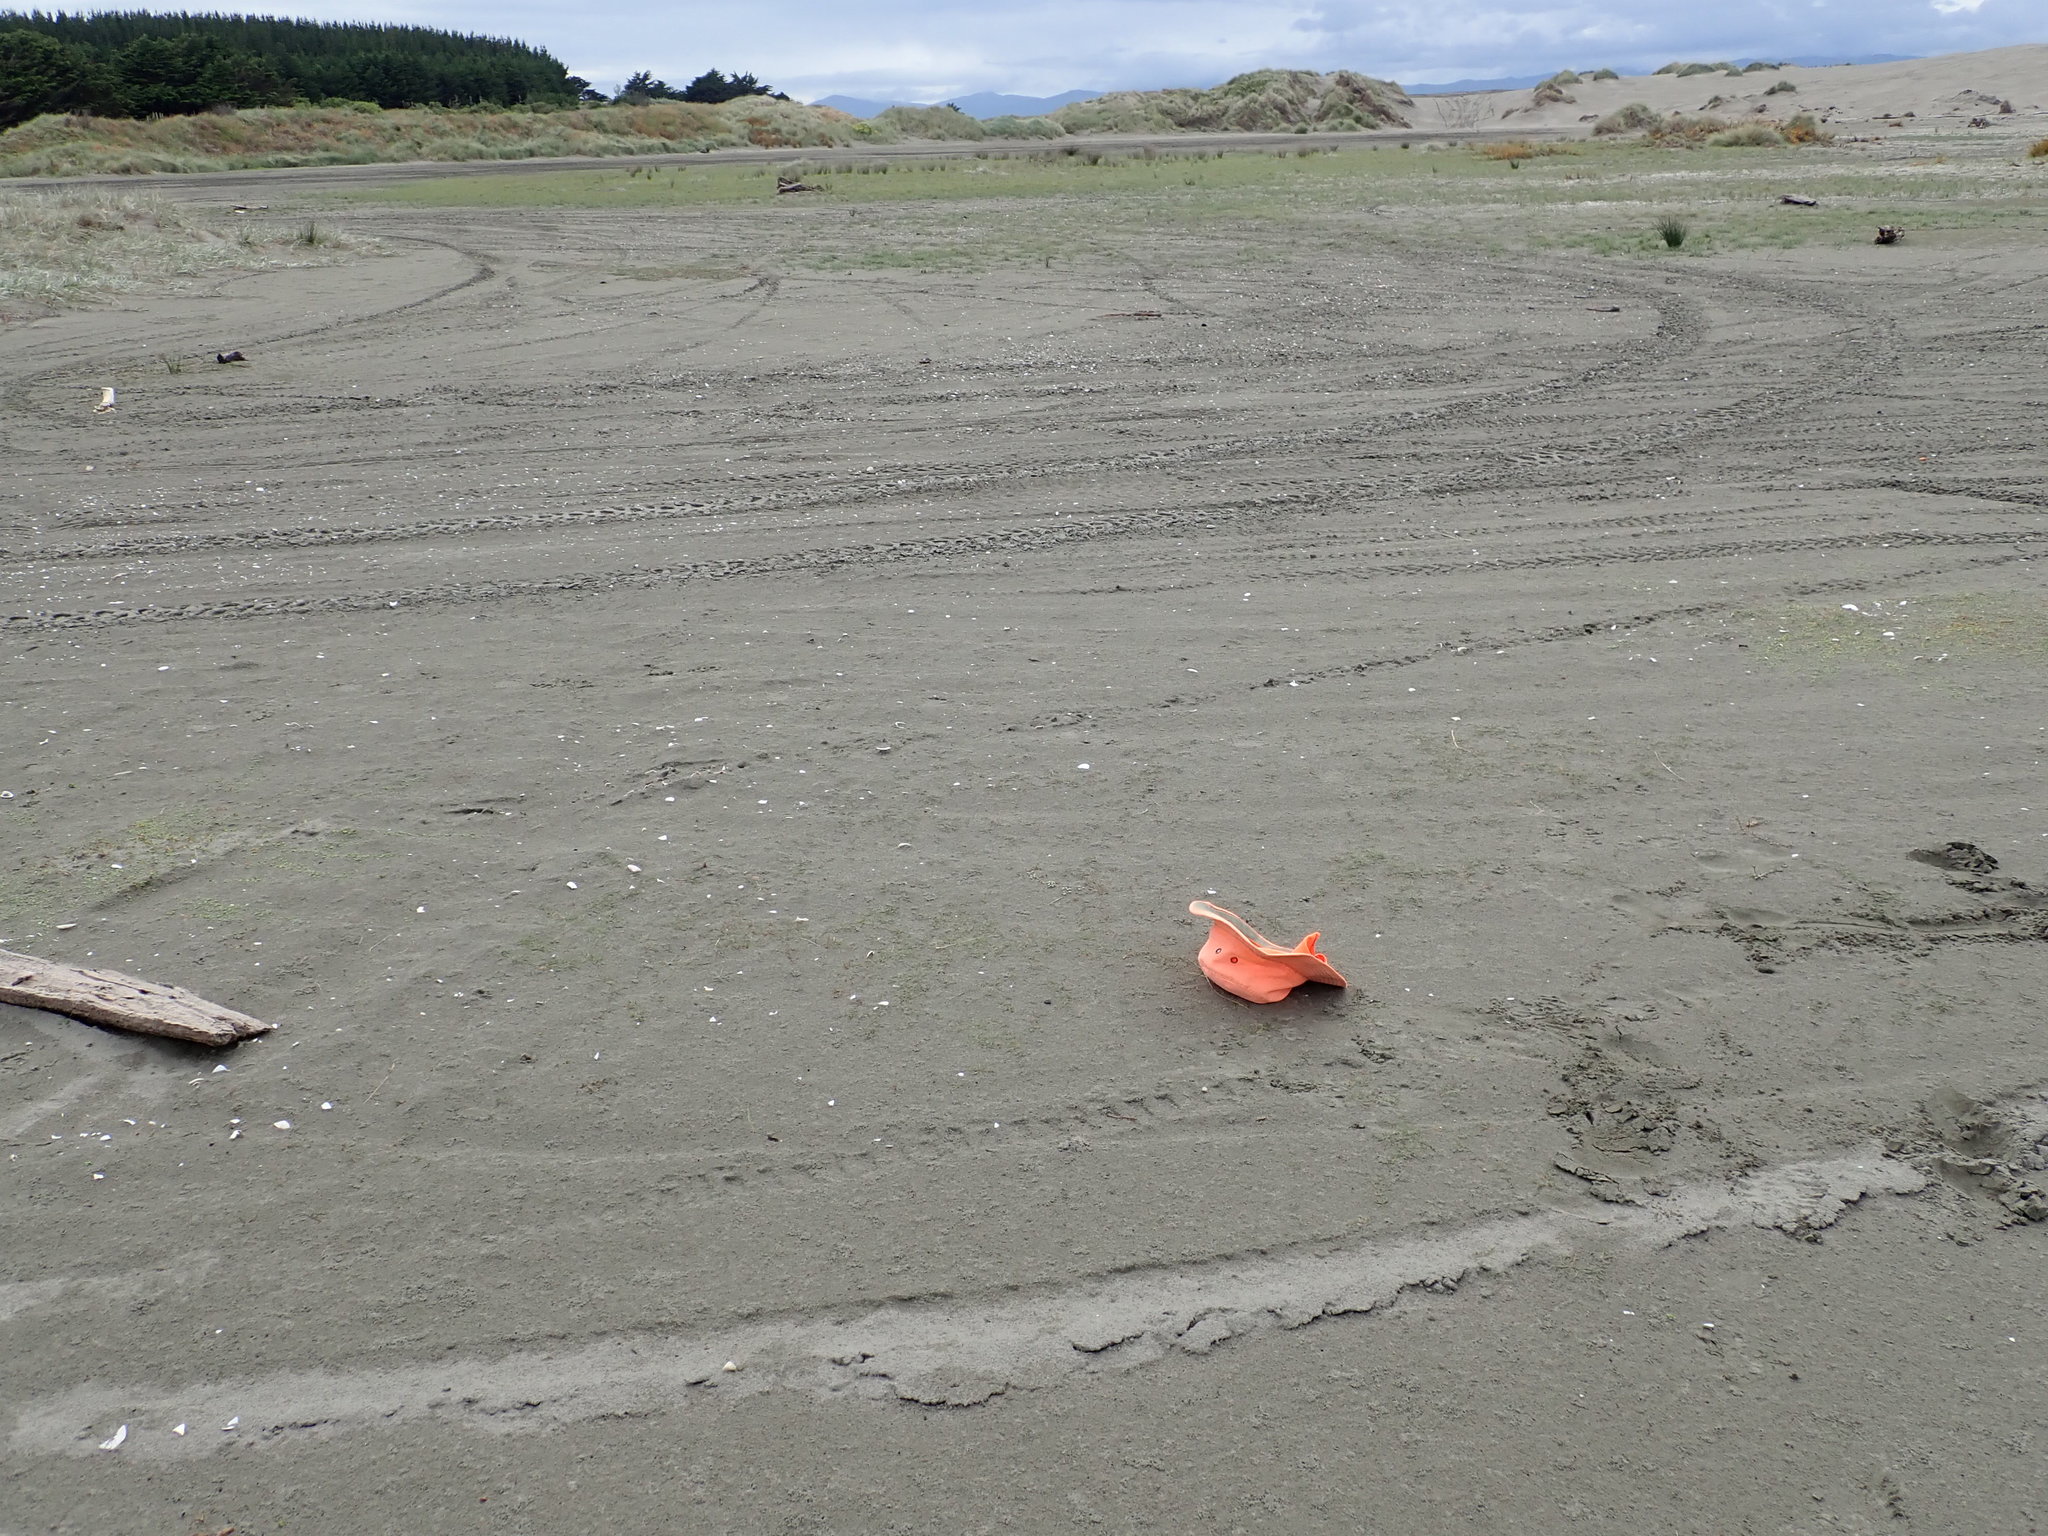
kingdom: Plantae
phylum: Tracheophyta
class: Liliopsida
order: Alismatales
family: Juncaginaceae
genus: Triglochin
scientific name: Triglochin striata
